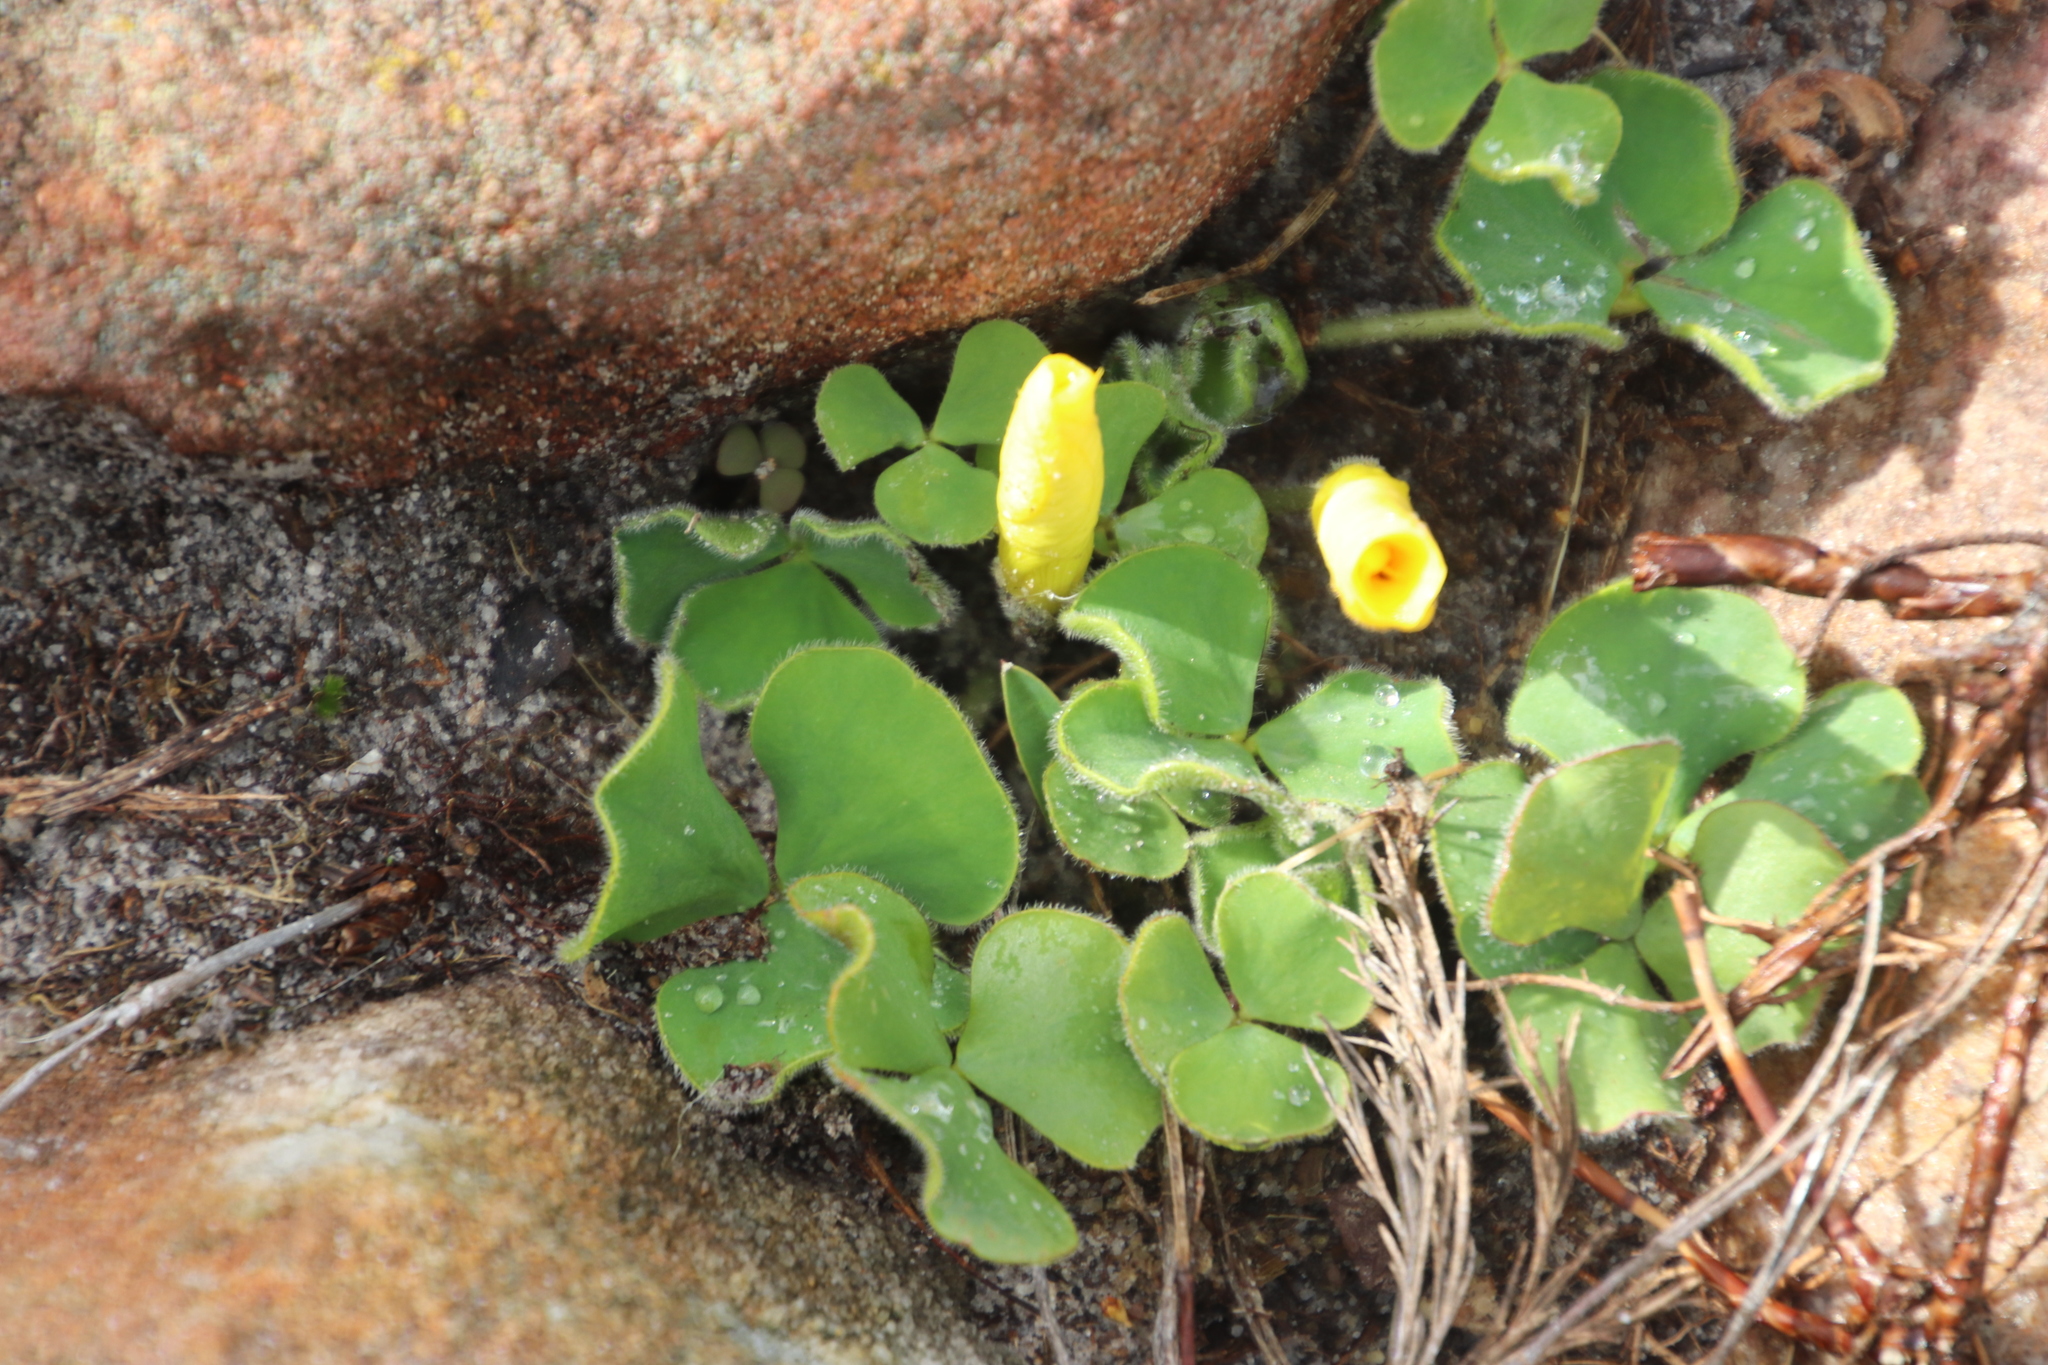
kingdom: Plantae
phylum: Tracheophyta
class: Magnoliopsida
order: Oxalidales
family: Oxalidaceae
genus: Oxalis
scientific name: Oxalis luteola
